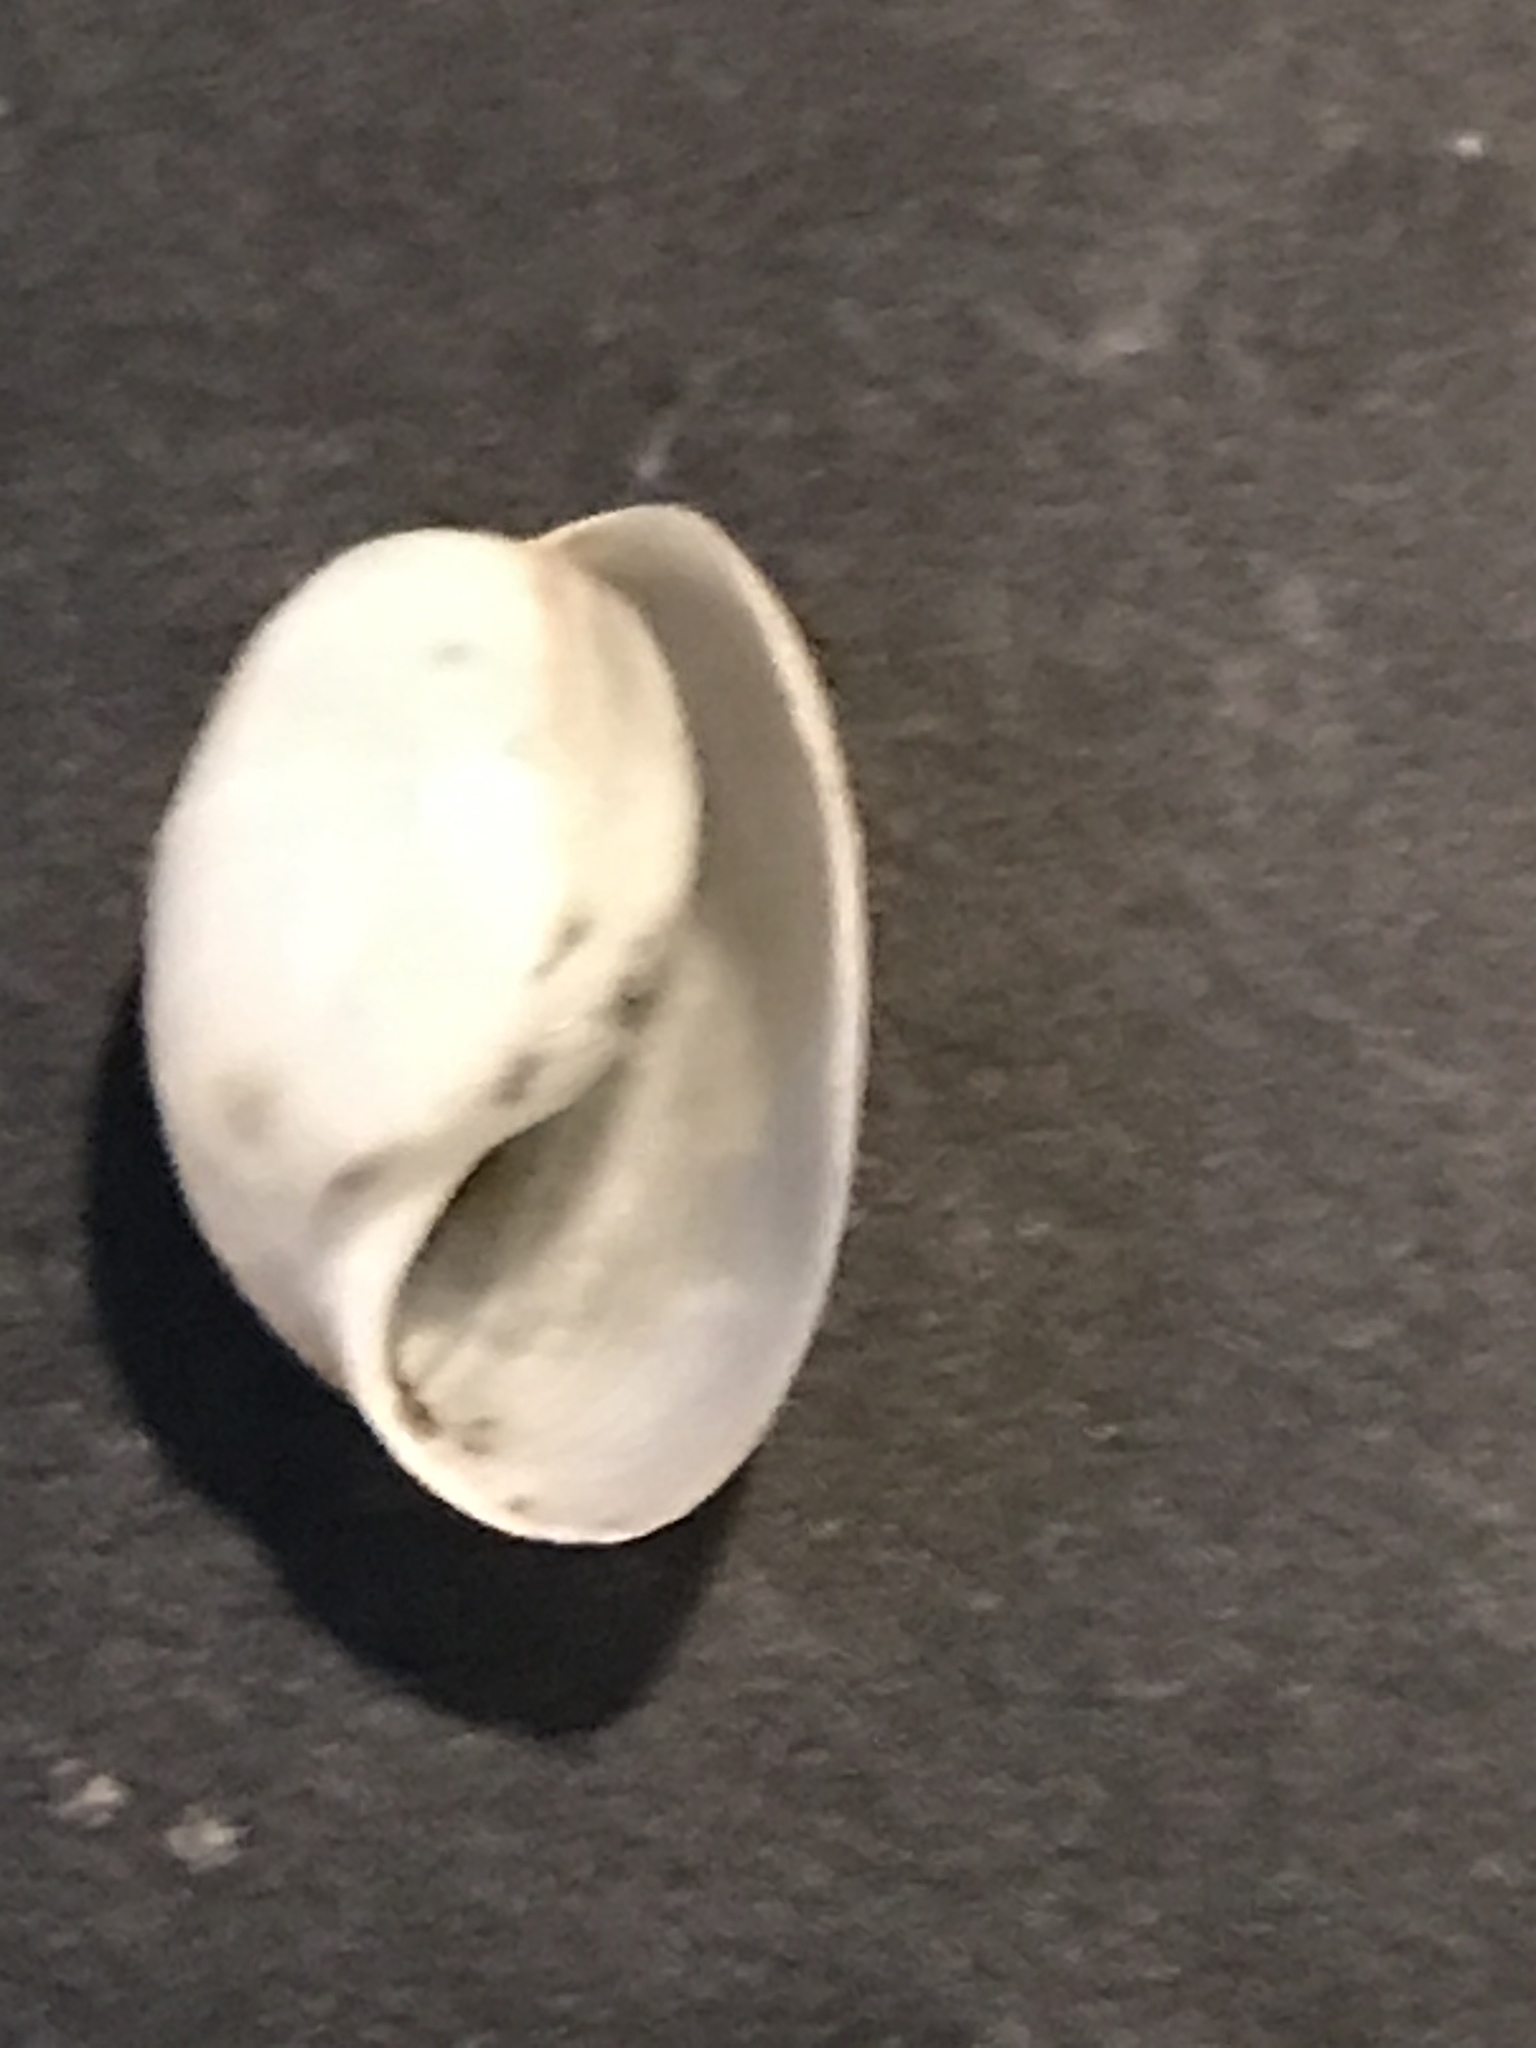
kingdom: Animalia
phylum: Mollusca
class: Gastropoda
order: Cephalaspidea
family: Haminoeidae
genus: Haloa
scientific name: Haloa japonica
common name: Japanese bubble snail
